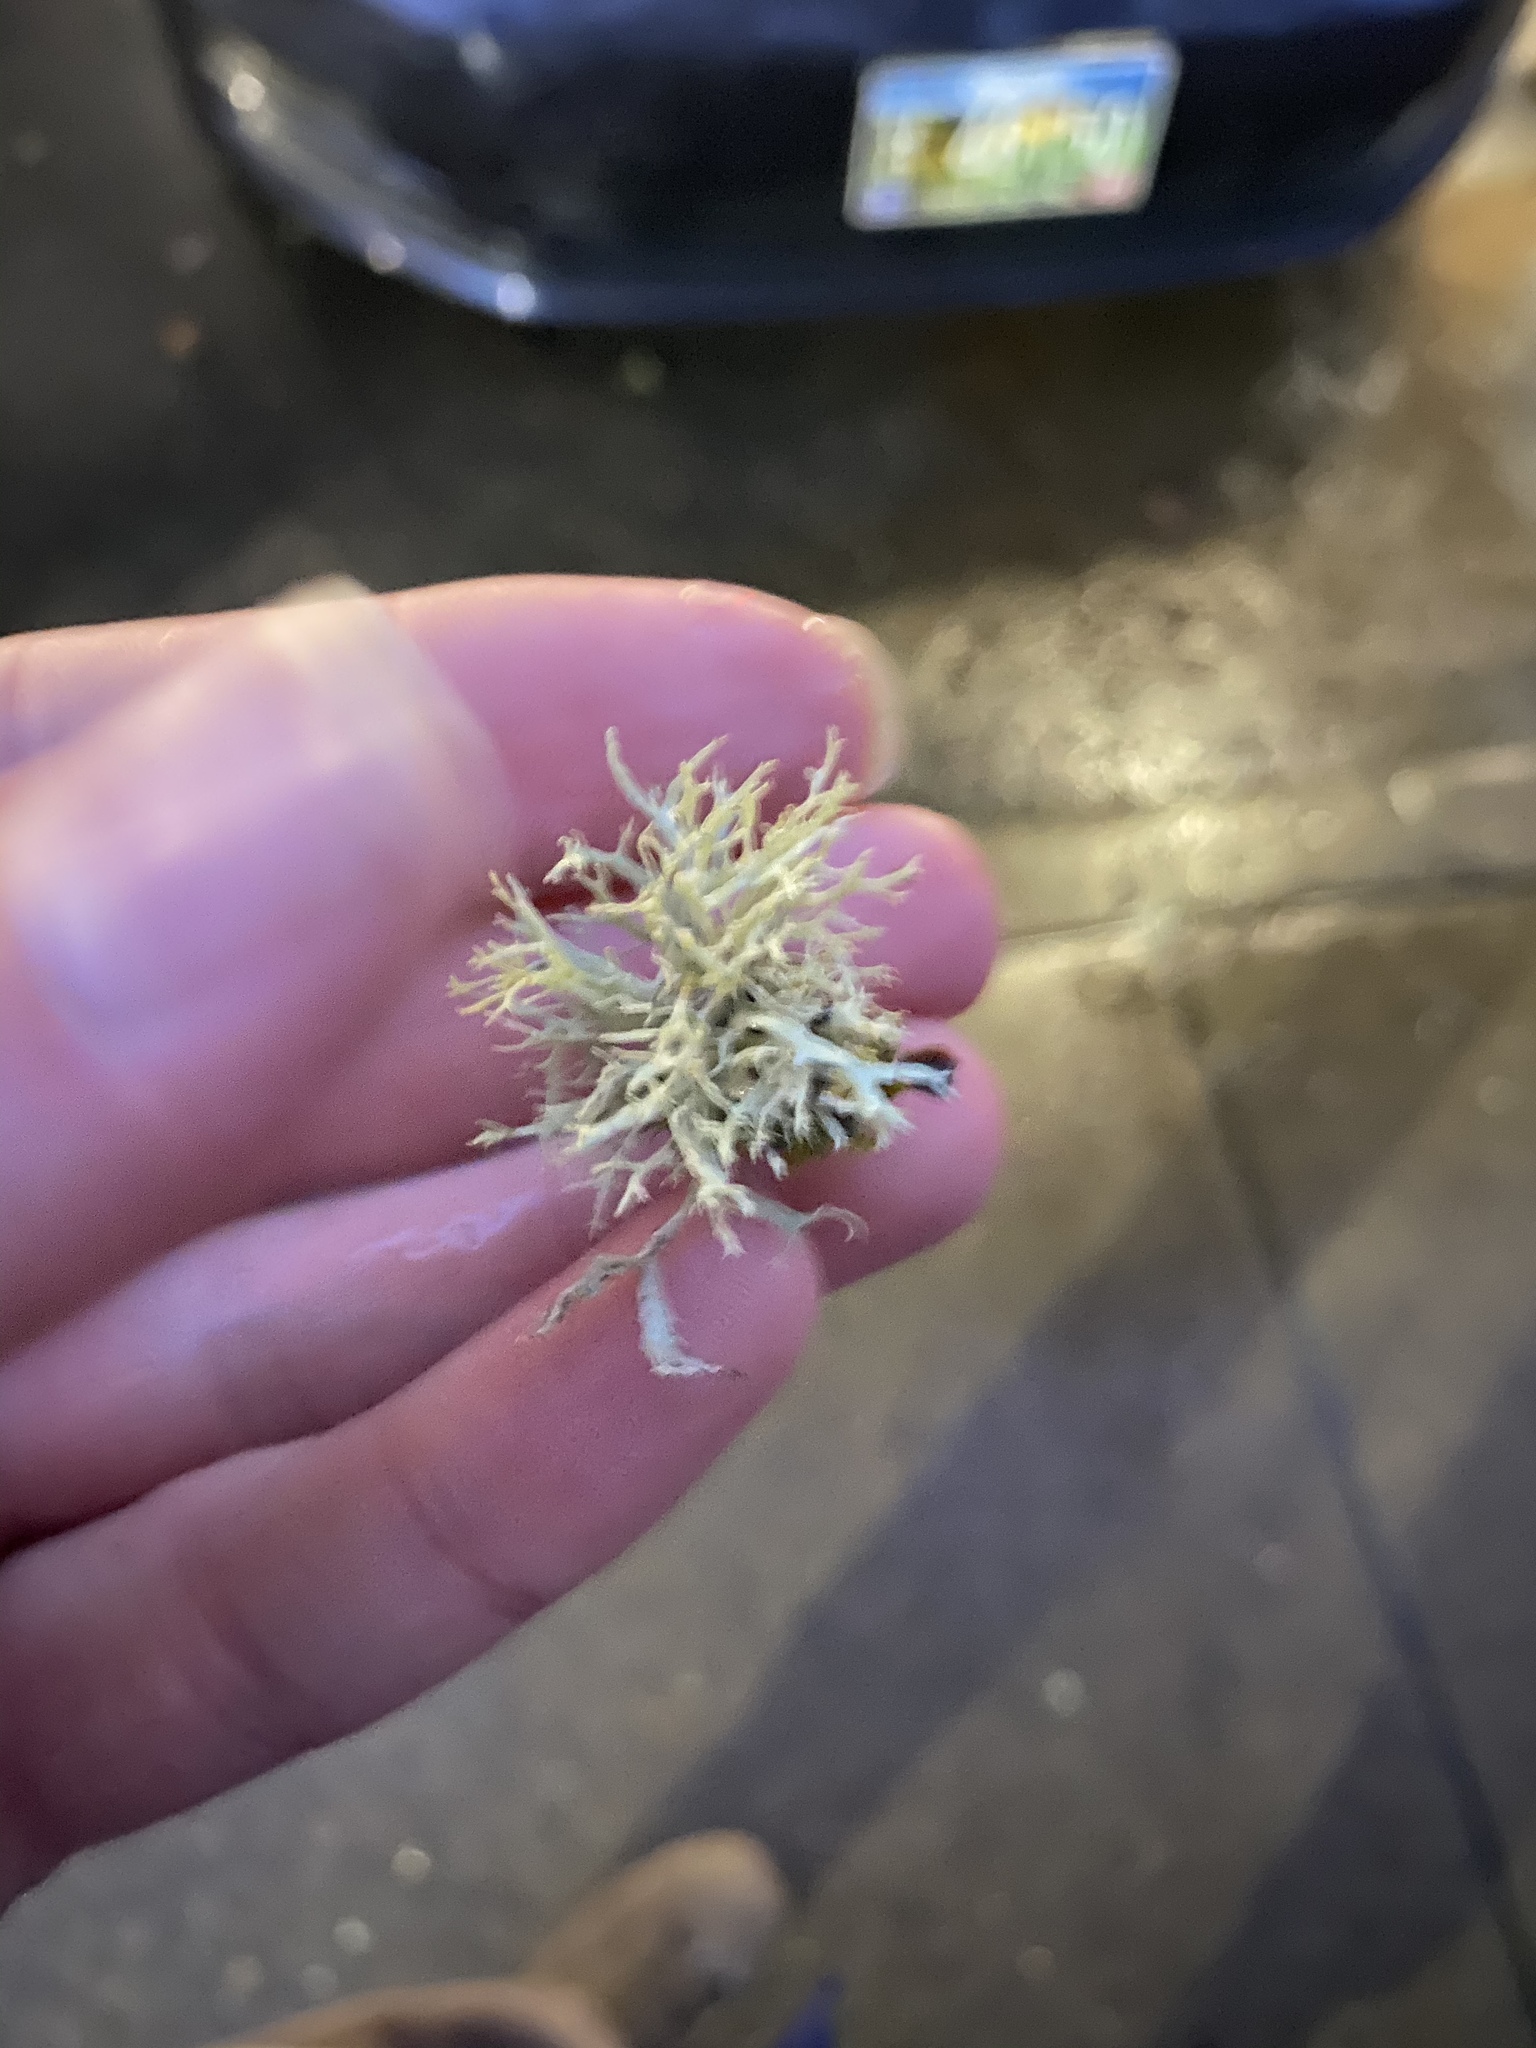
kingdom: Fungi
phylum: Ascomycota
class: Lecanoromycetes
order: Lecanorales
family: Parmeliaceae
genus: Evernia
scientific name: Evernia prunastri
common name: Oak moss
